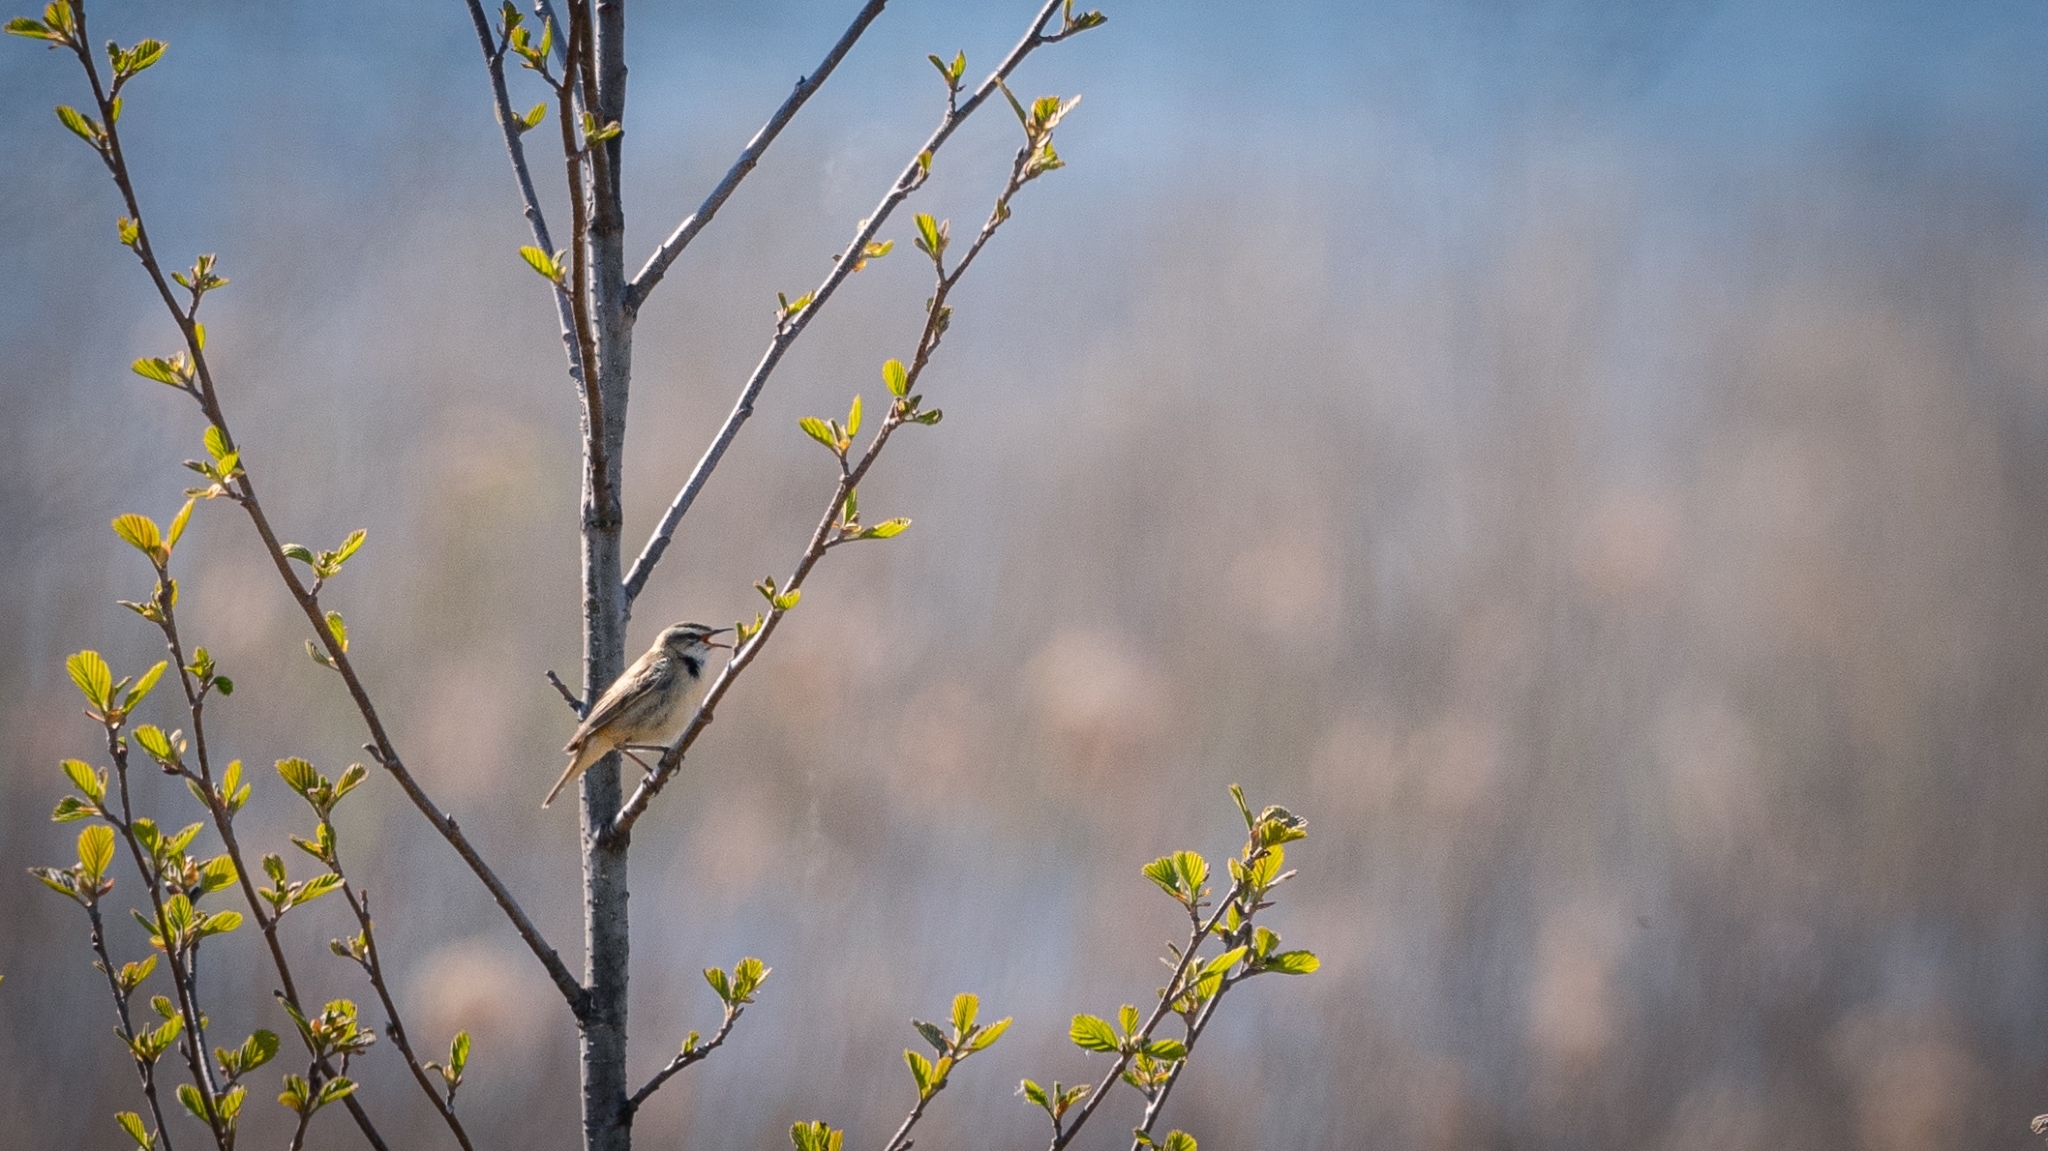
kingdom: Animalia
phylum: Chordata
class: Aves
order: Passeriformes
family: Acrocephalidae
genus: Acrocephalus
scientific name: Acrocephalus schoenobaenus
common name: Sedge warbler
